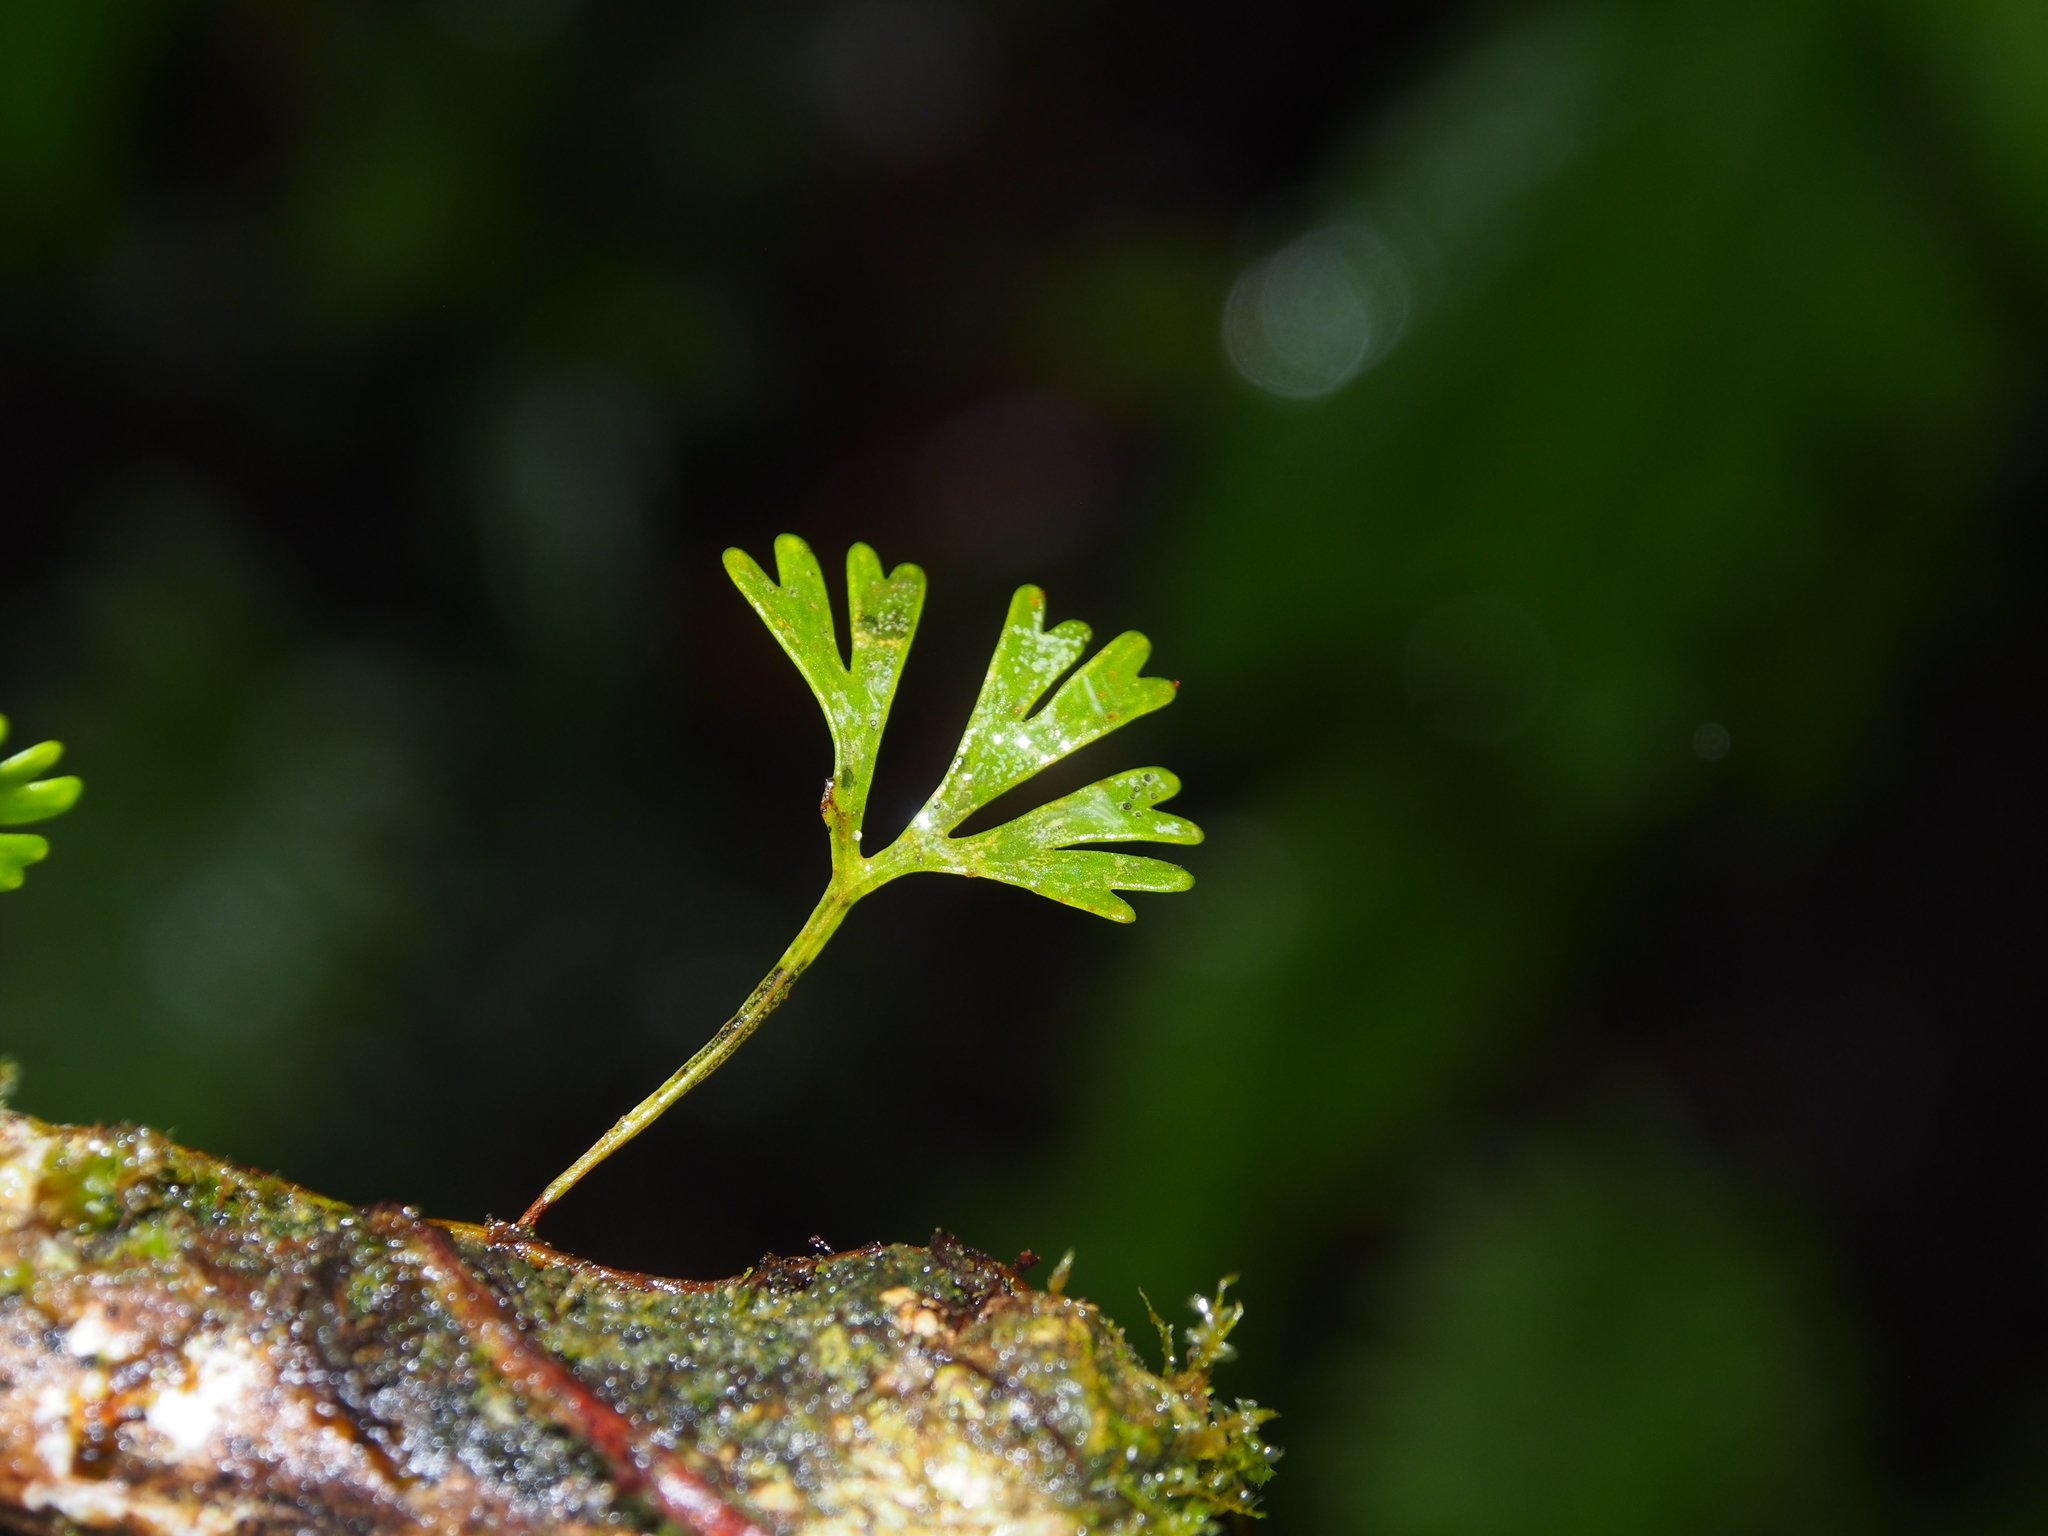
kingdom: Plantae
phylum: Tracheophyta
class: Polypodiopsida
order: Polypodiales
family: Dryopteridaceae
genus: Elaphoglossum
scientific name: Elaphoglossum peltatum
